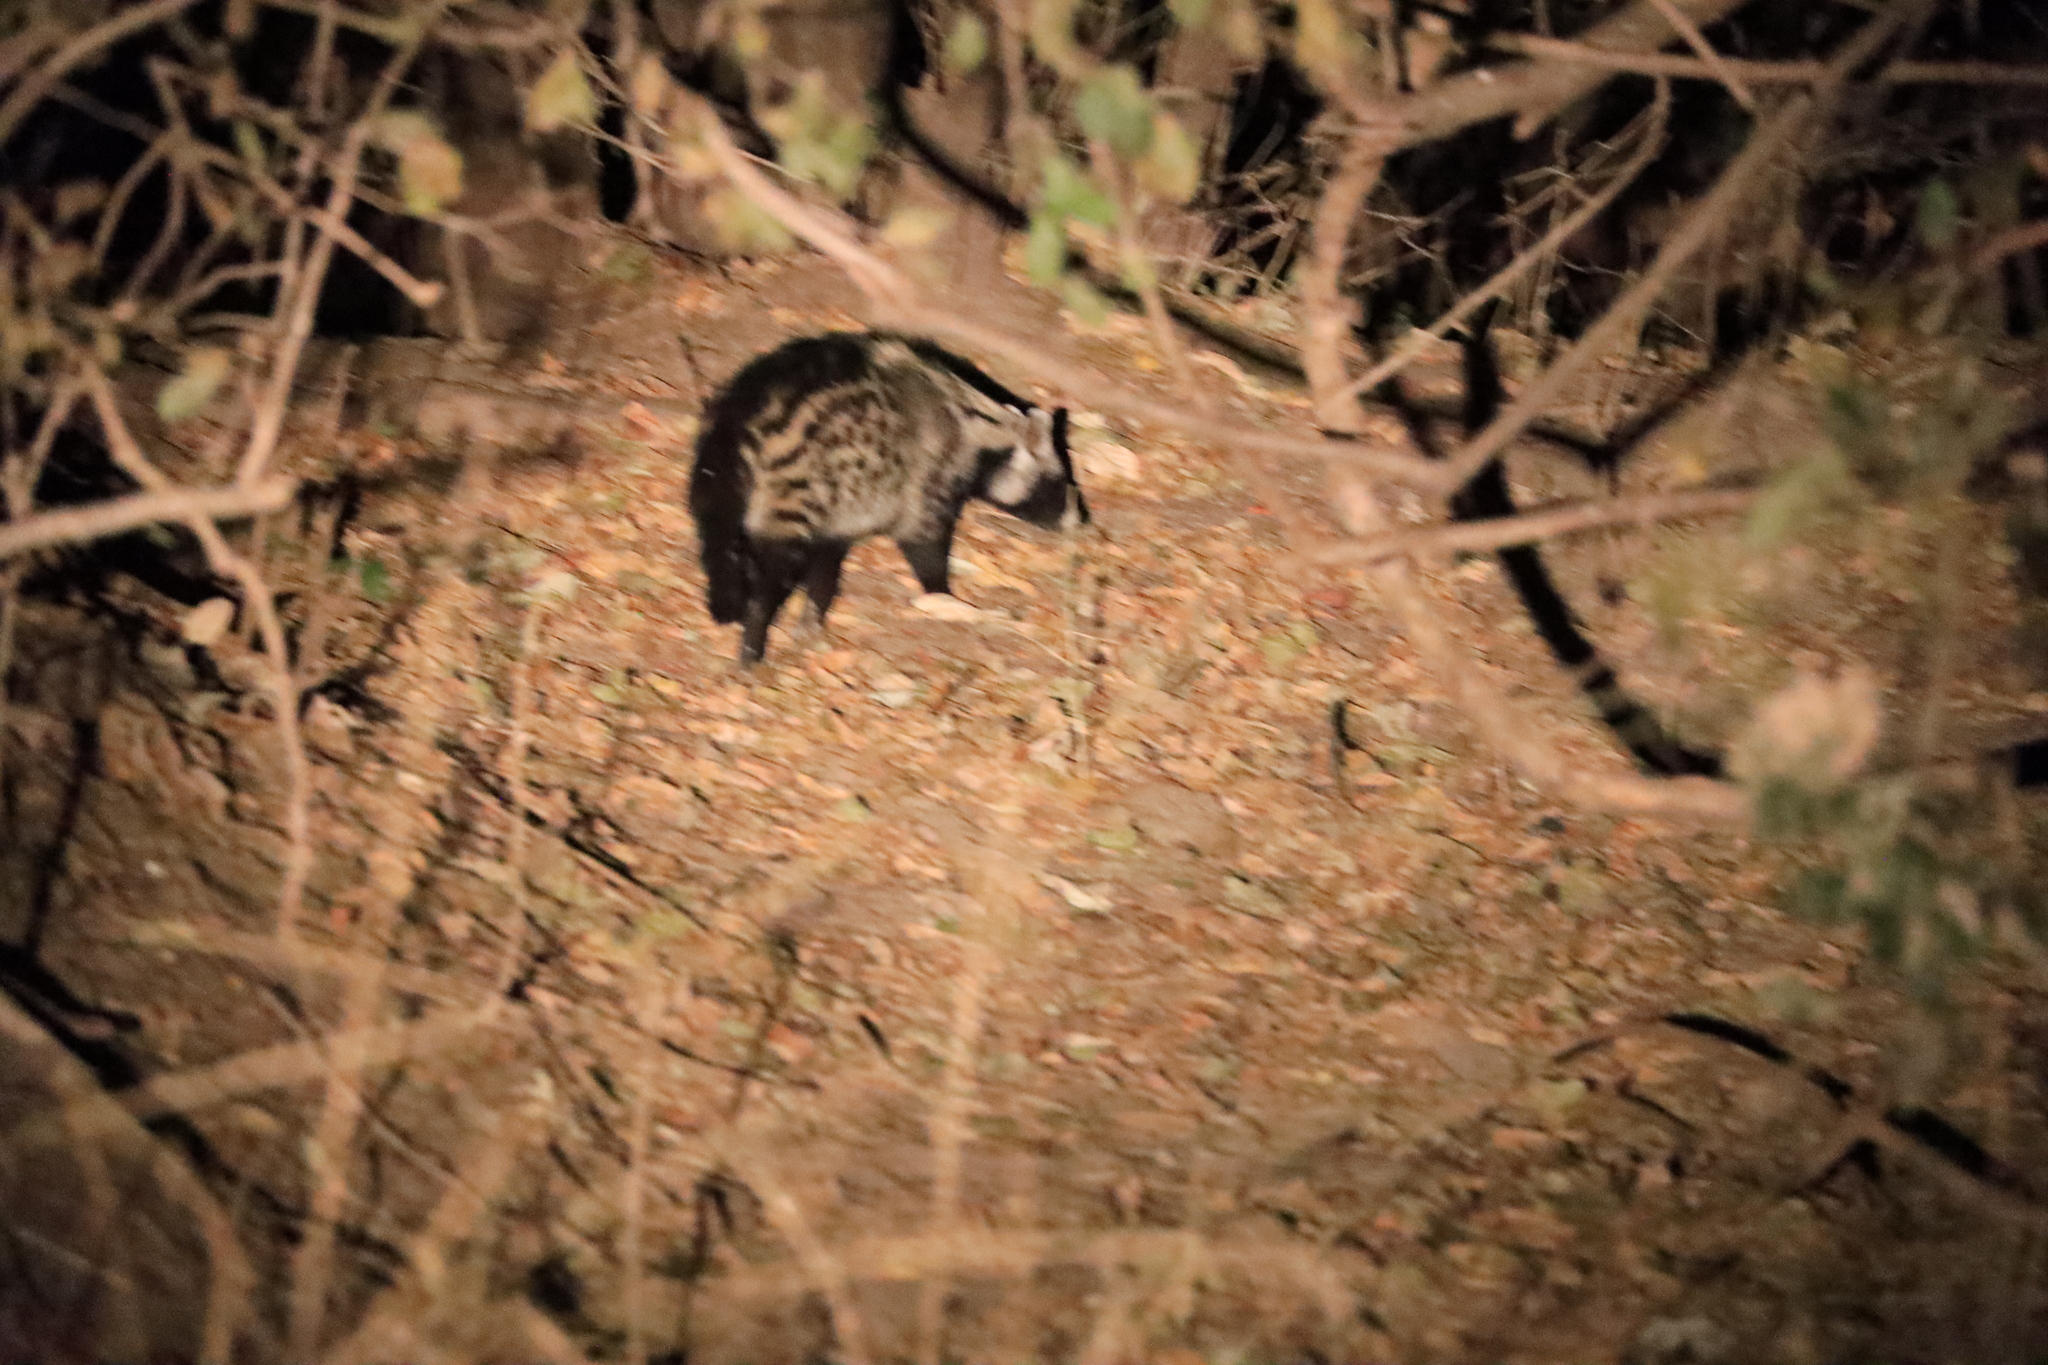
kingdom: Animalia
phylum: Chordata
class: Mammalia
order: Carnivora
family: Viverridae
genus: Civettictis
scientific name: Civettictis civetta
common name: African civet
